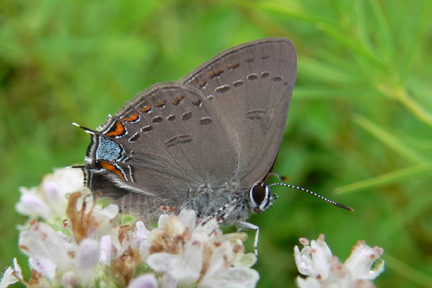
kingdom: Animalia
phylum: Arthropoda
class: Insecta
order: Lepidoptera
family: Lycaenidae
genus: Satyrium
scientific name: Satyrium calanus
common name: Banded hairstreak
